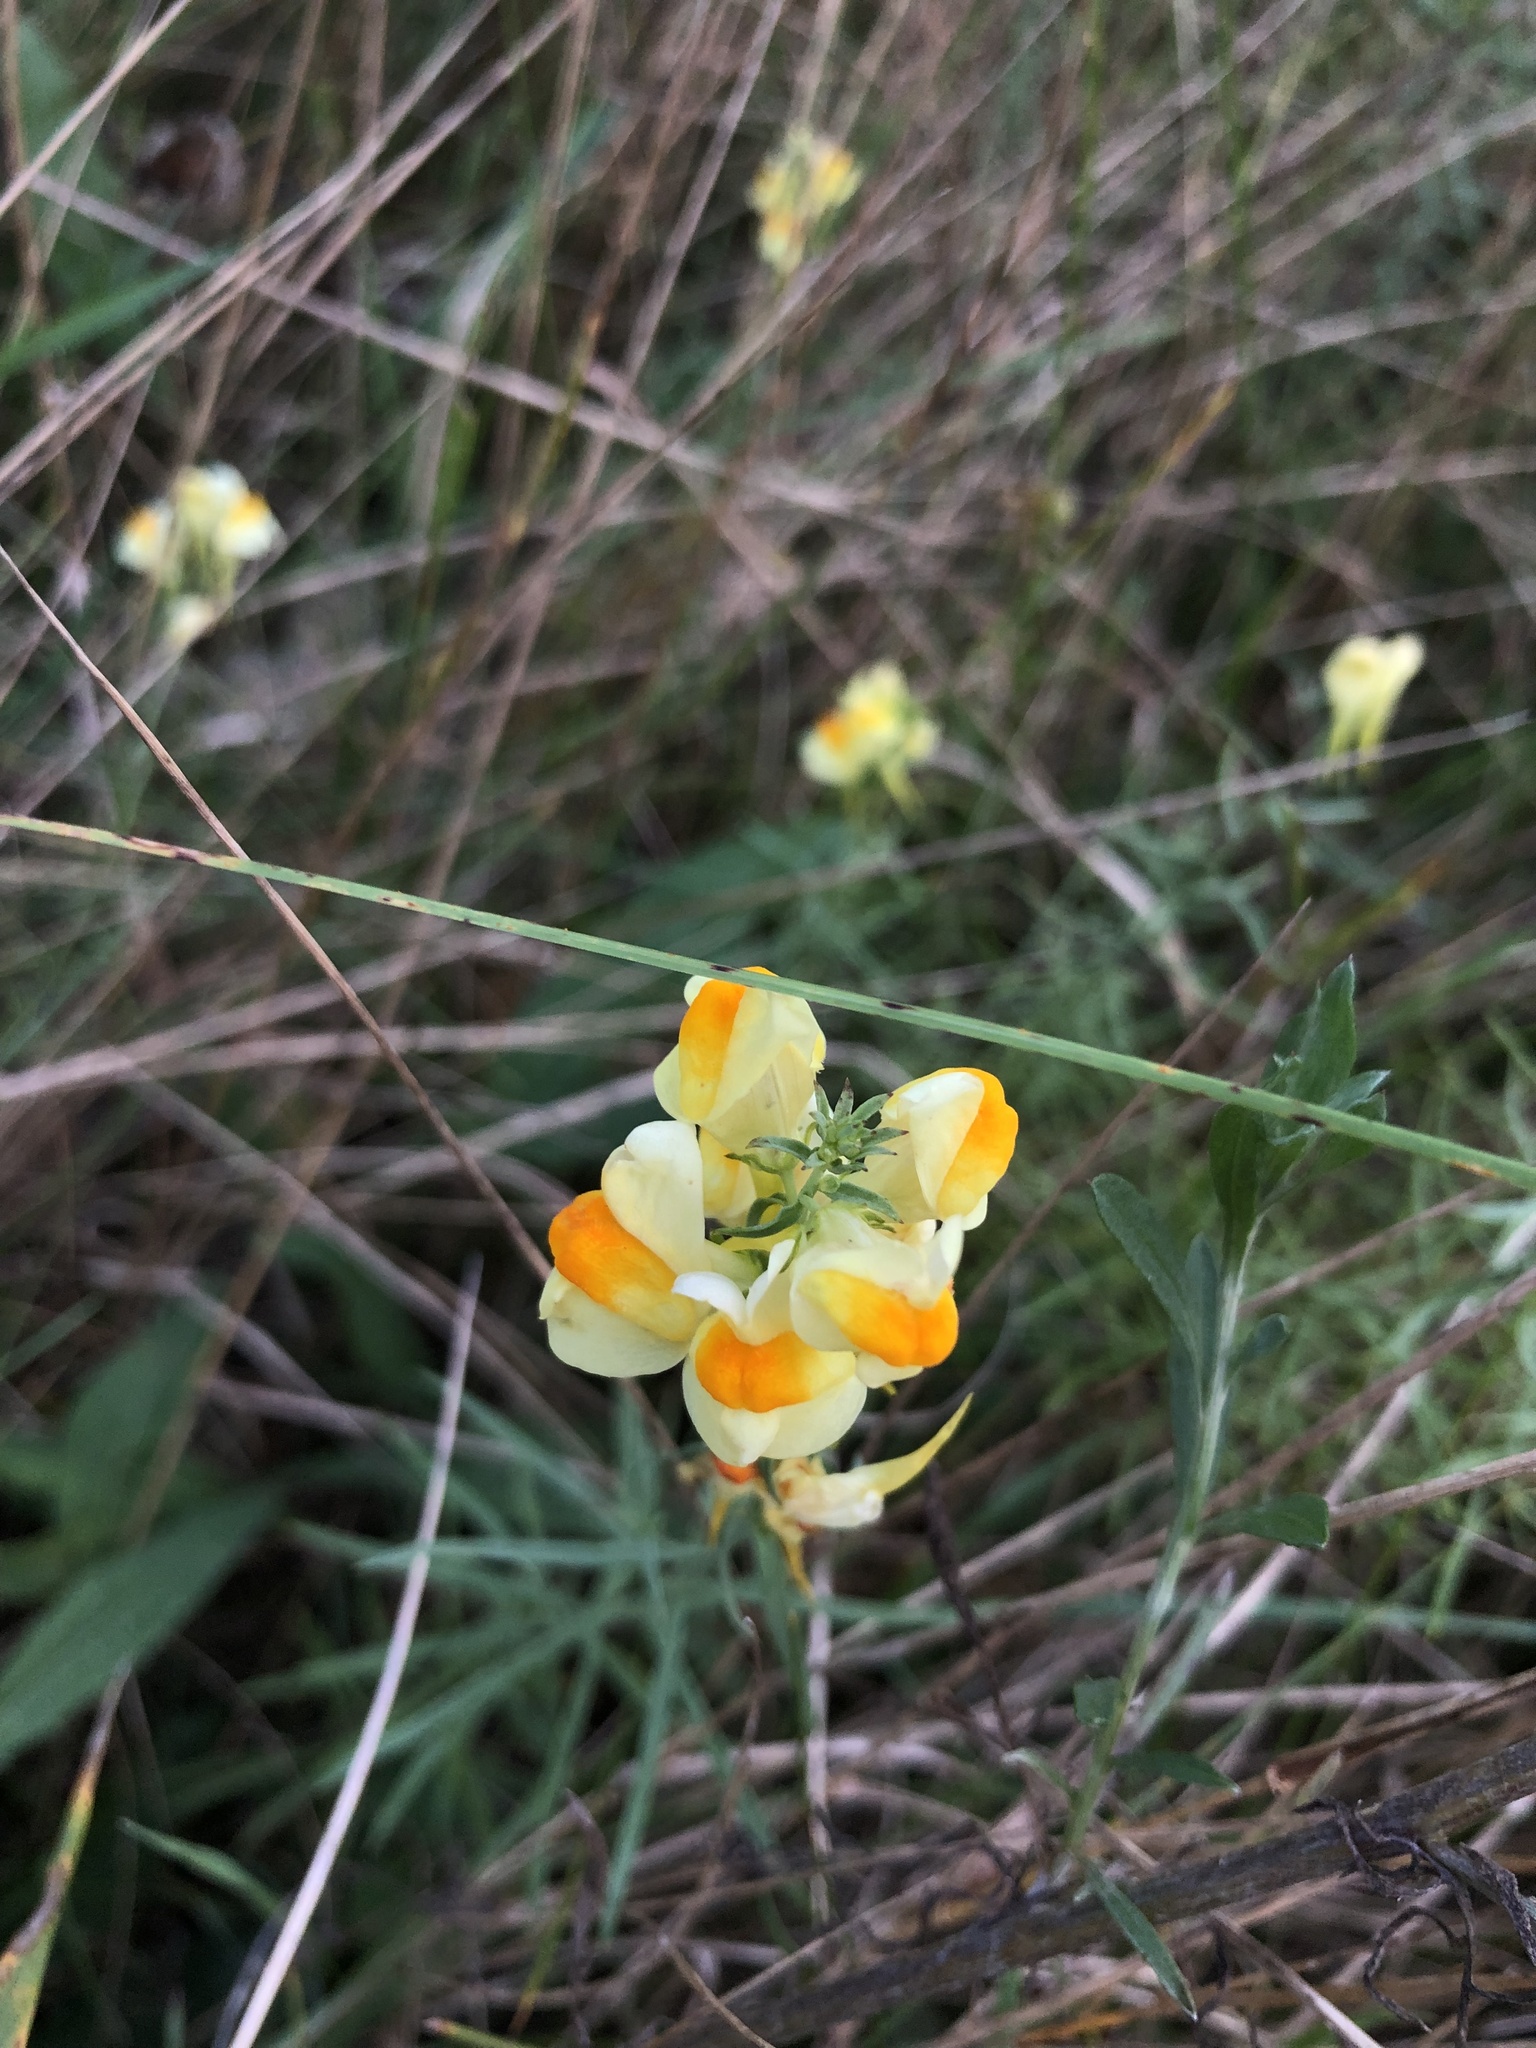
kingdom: Plantae
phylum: Tracheophyta
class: Magnoliopsida
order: Lamiales
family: Plantaginaceae
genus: Linaria
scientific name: Linaria vulgaris
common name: Butter and eggs
